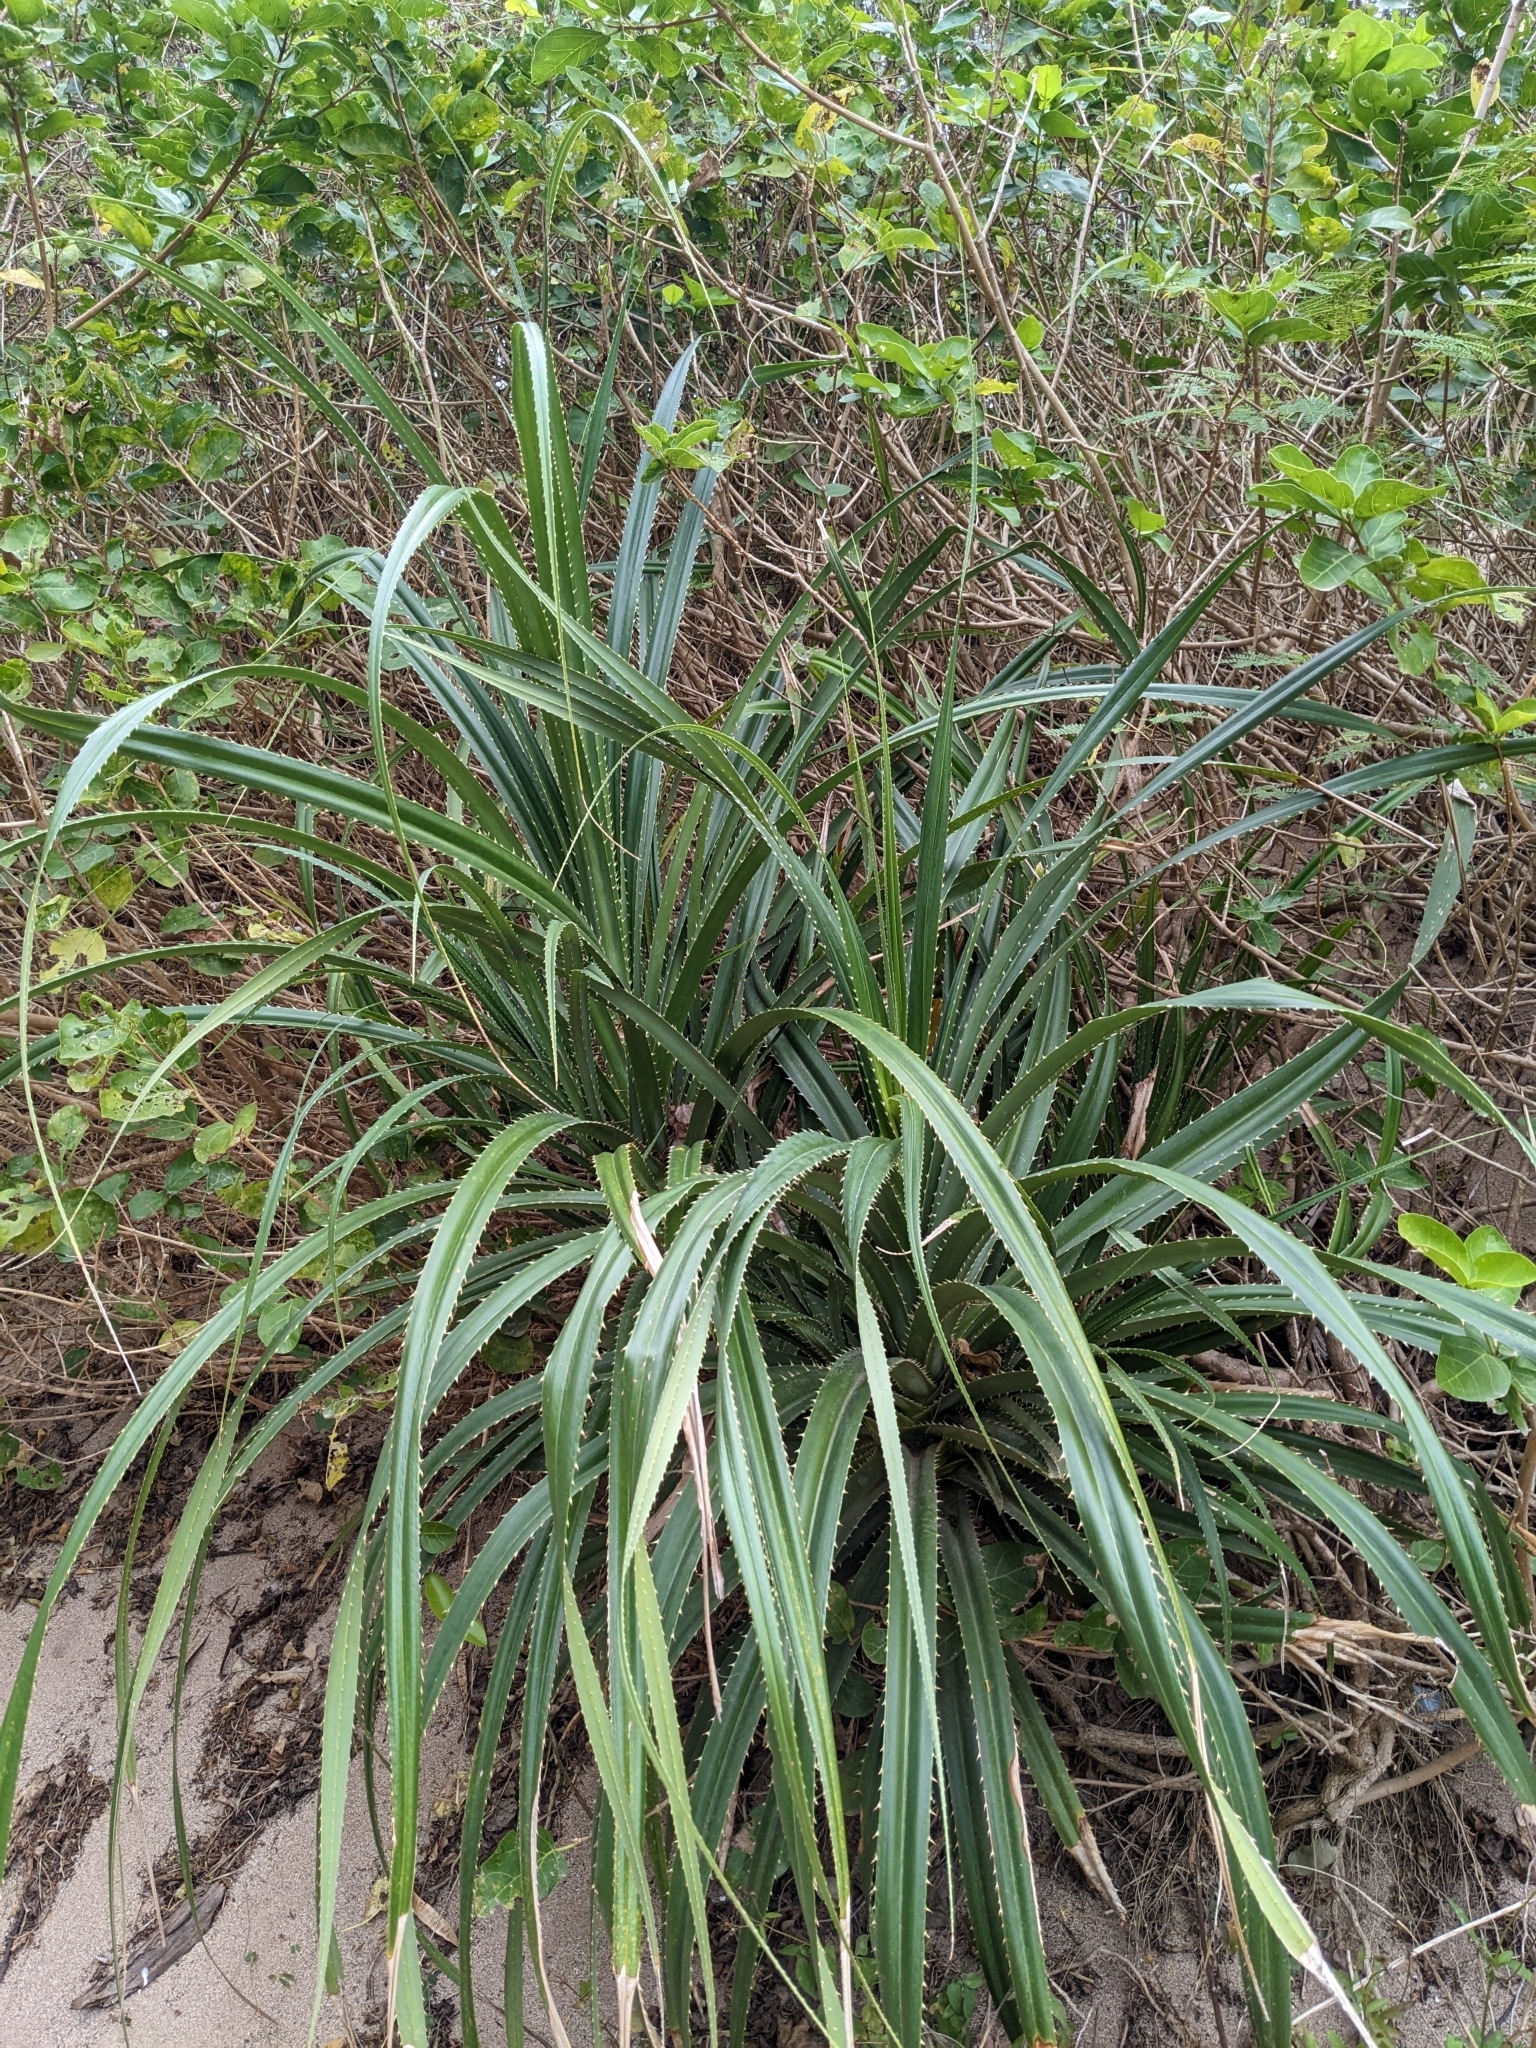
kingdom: Plantae
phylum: Tracheophyta
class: Liliopsida
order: Pandanales
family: Pandanaceae
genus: Pandanus
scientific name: Pandanus odorifer
